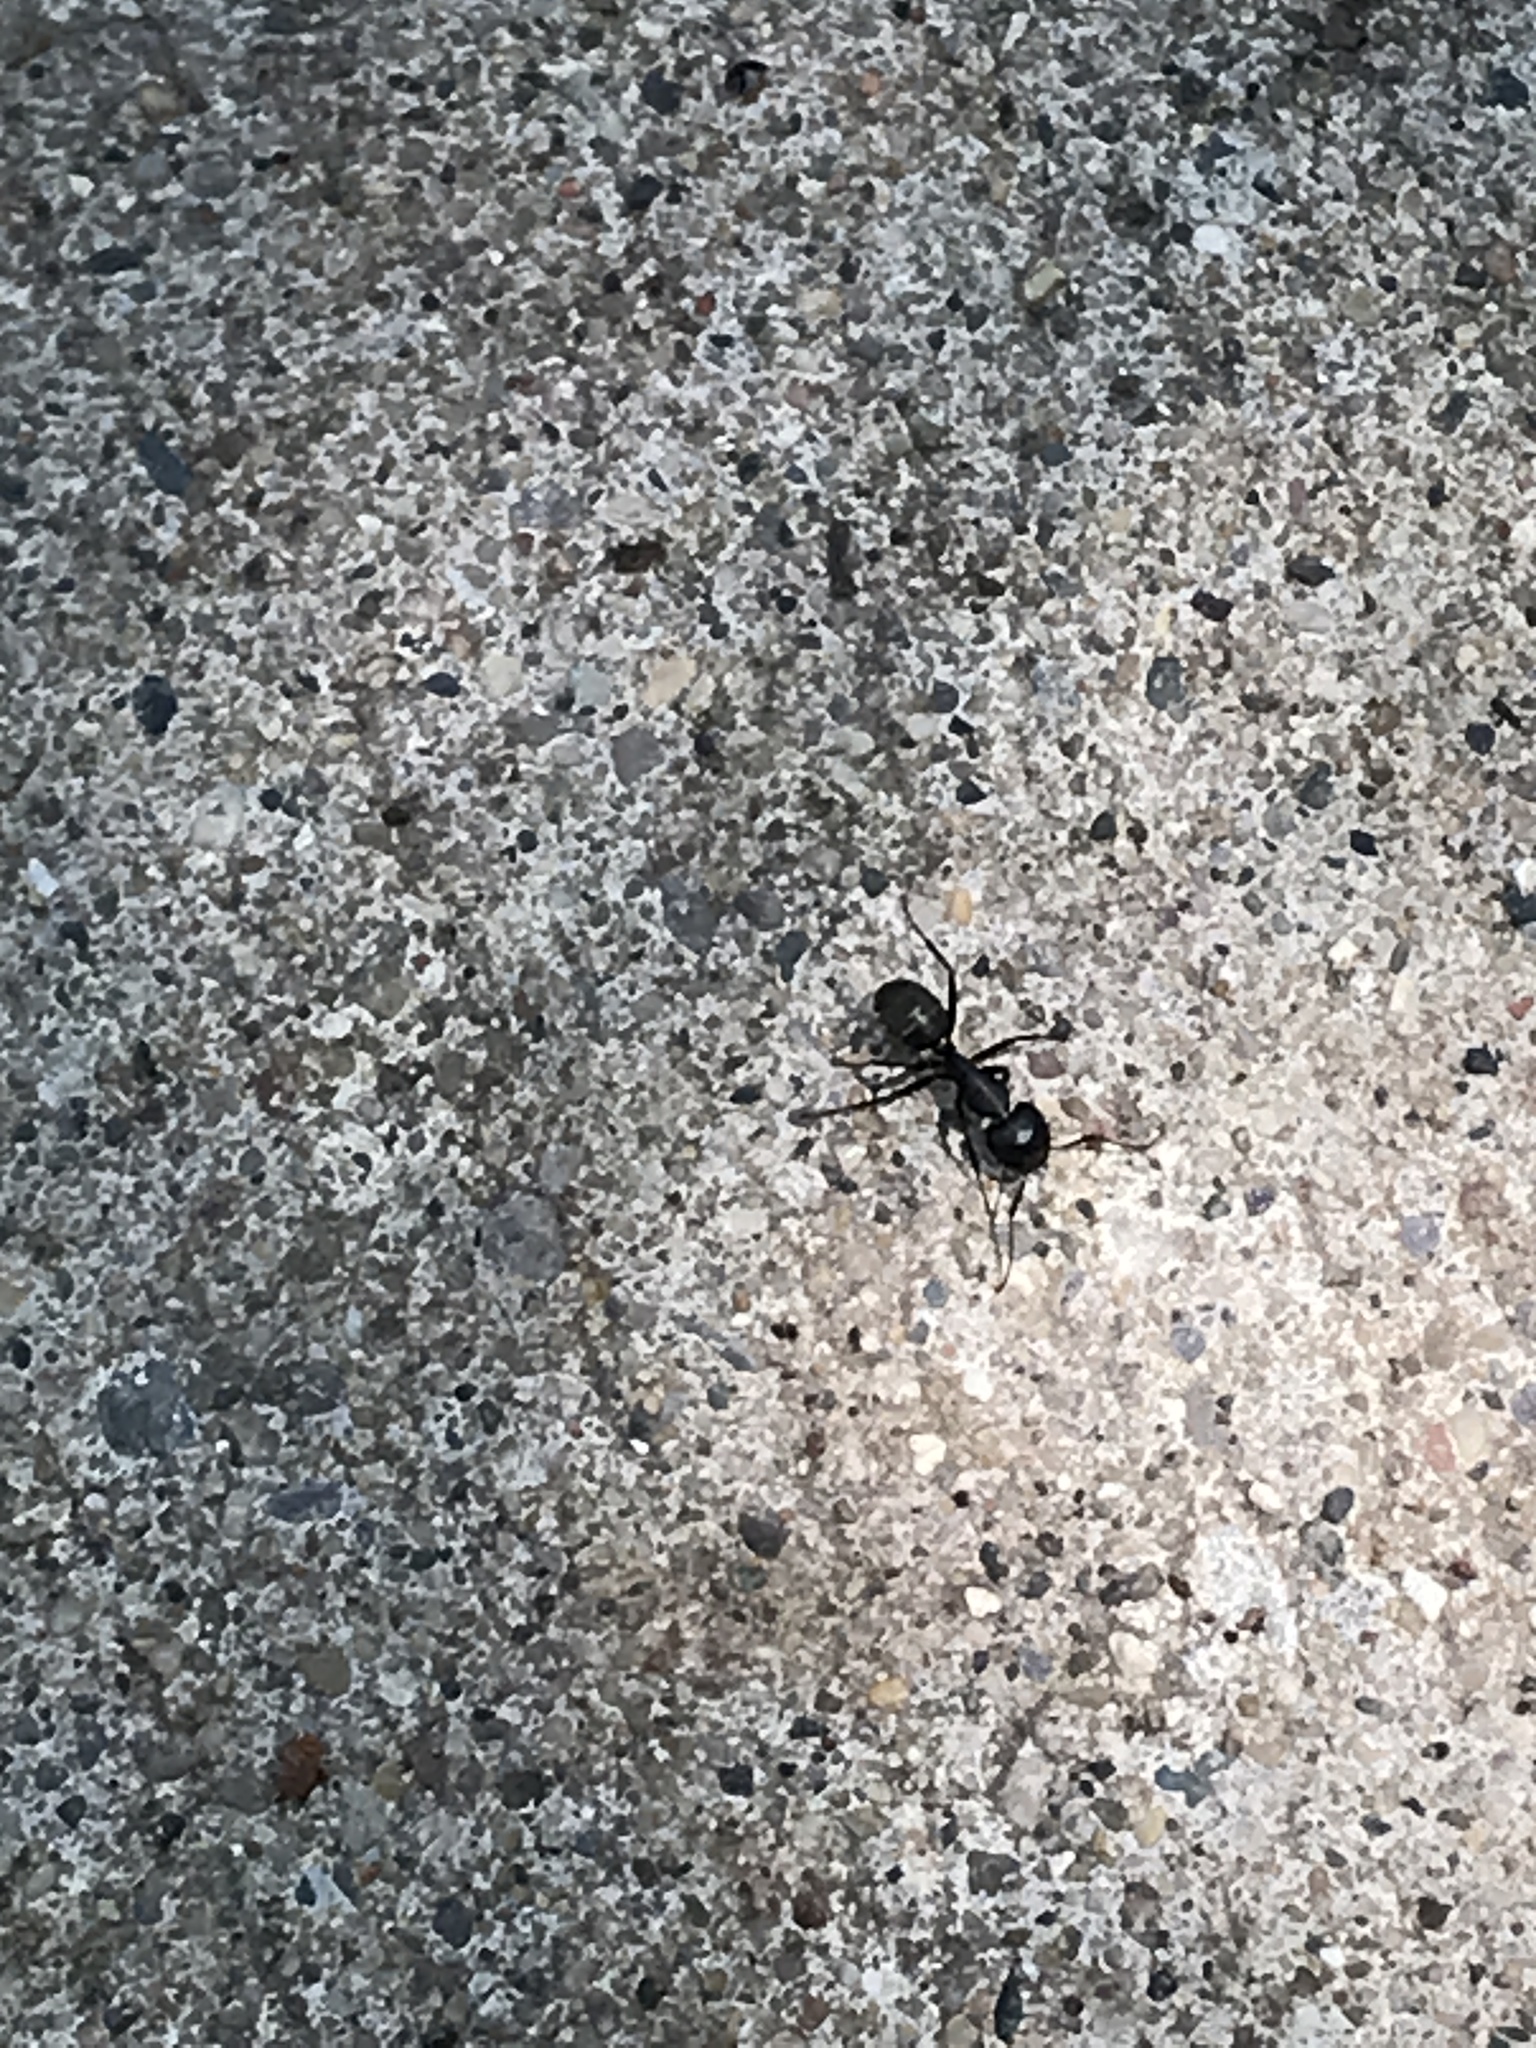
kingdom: Animalia
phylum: Arthropoda
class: Insecta
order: Hymenoptera
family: Formicidae
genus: Camponotus
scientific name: Camponotus pennsylvanicus
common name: Black carpenter ant
